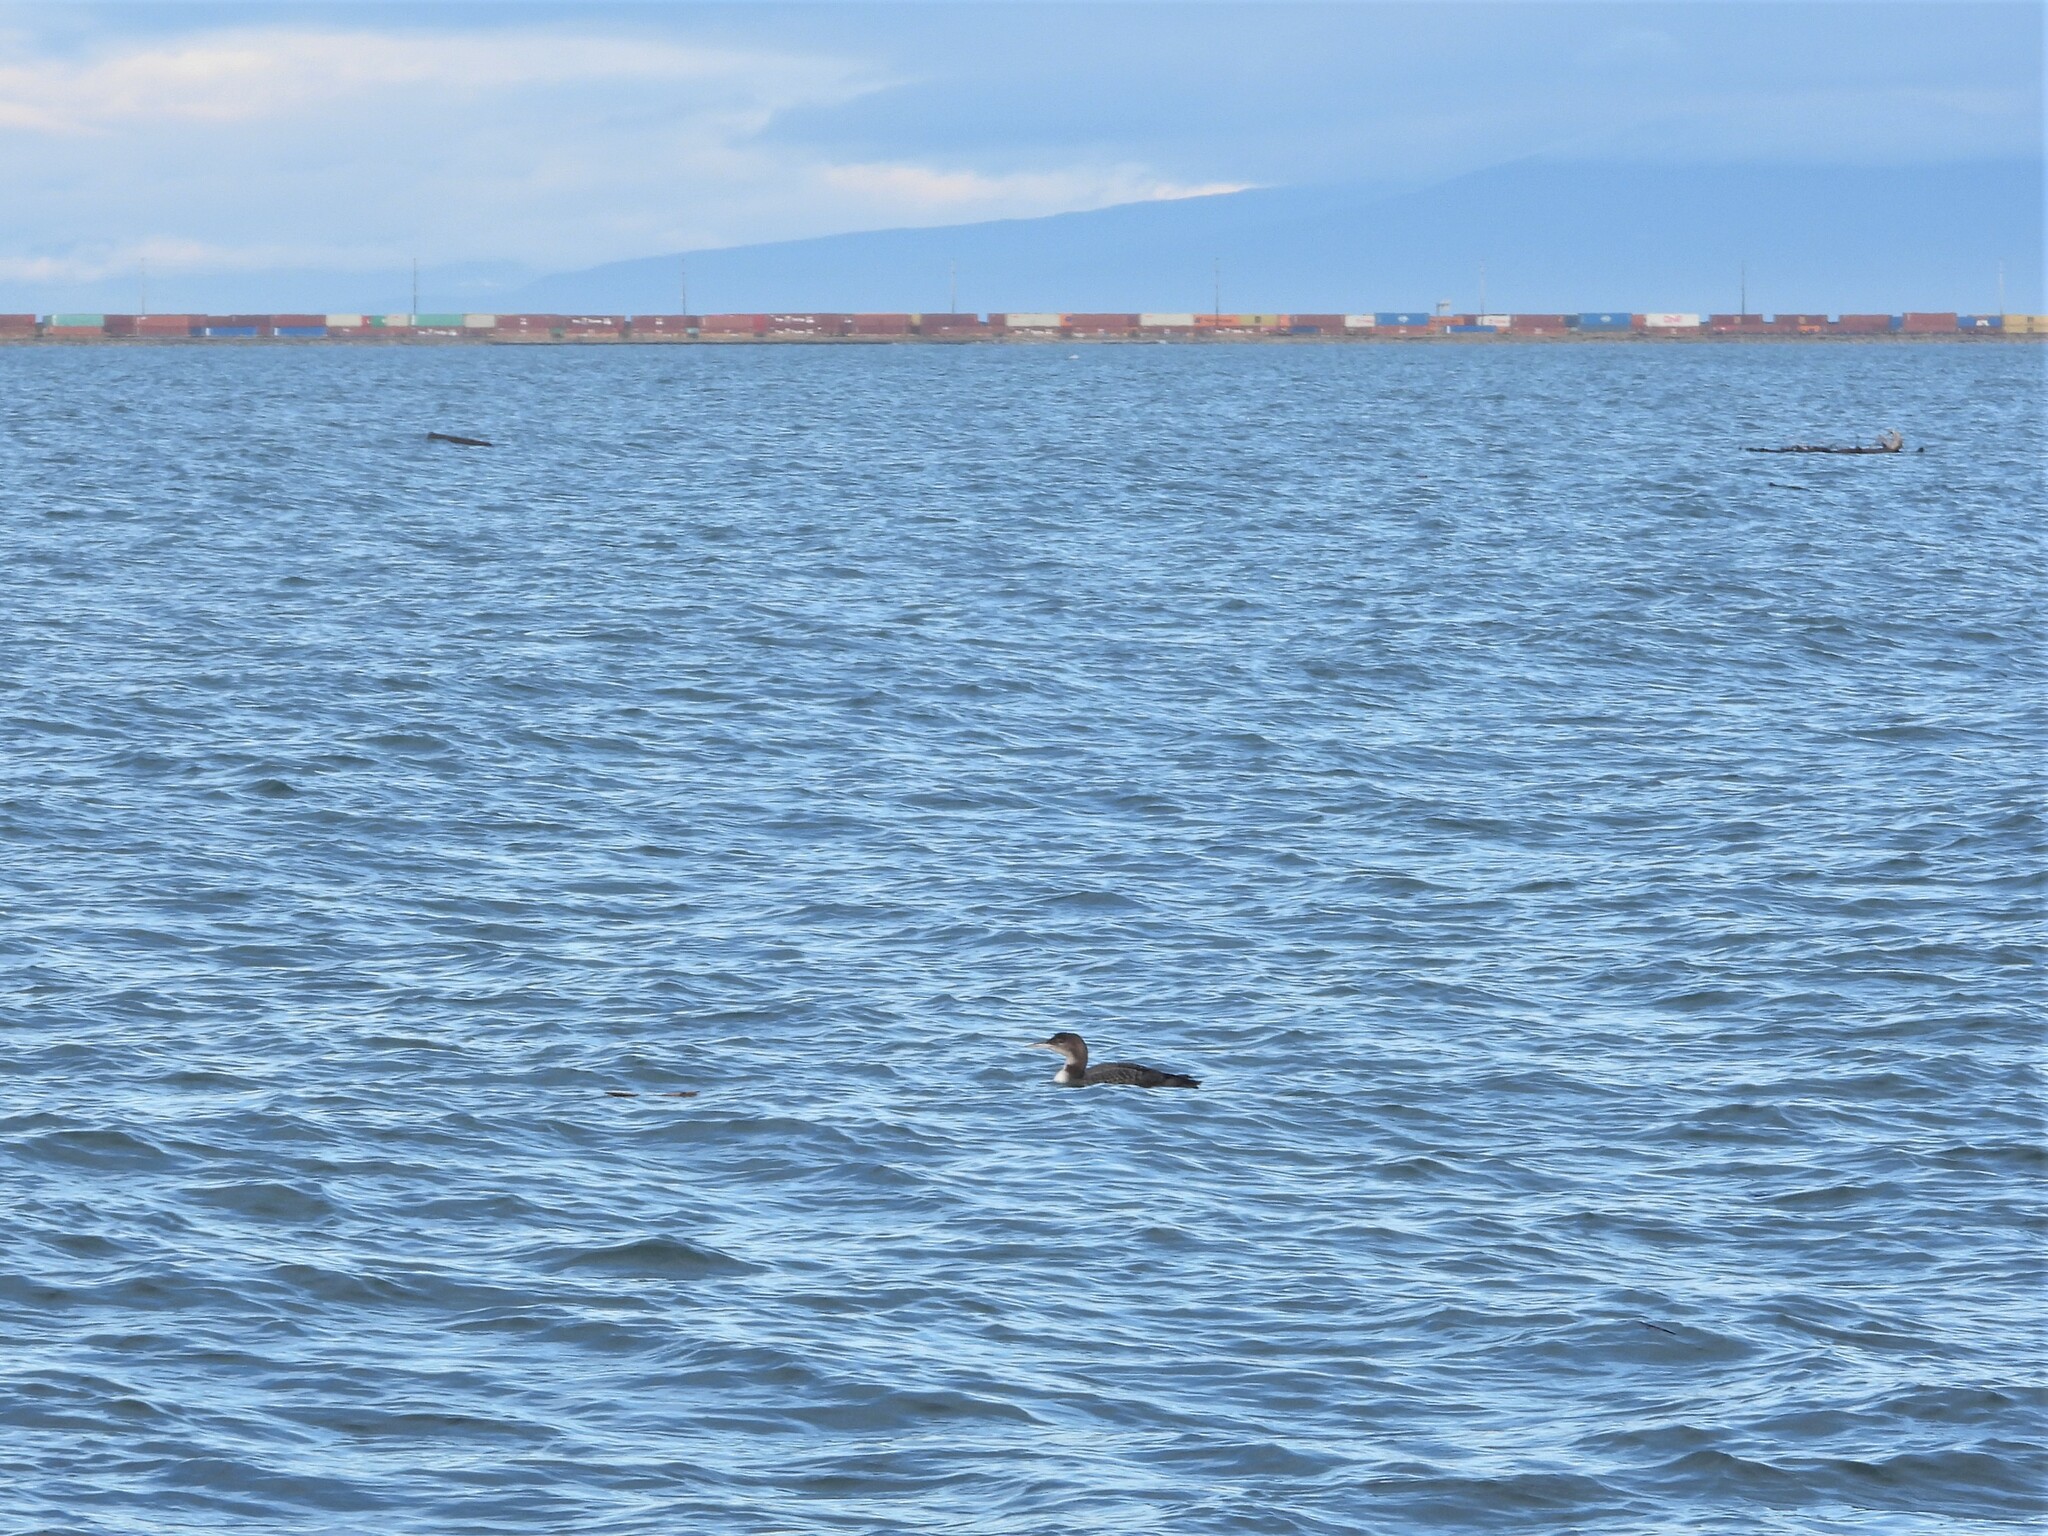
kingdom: Animalia
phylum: Chordata
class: Aves
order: Gaviiformes
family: Gaviidae
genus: Gavia
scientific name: Gavia immer
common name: Common loon
